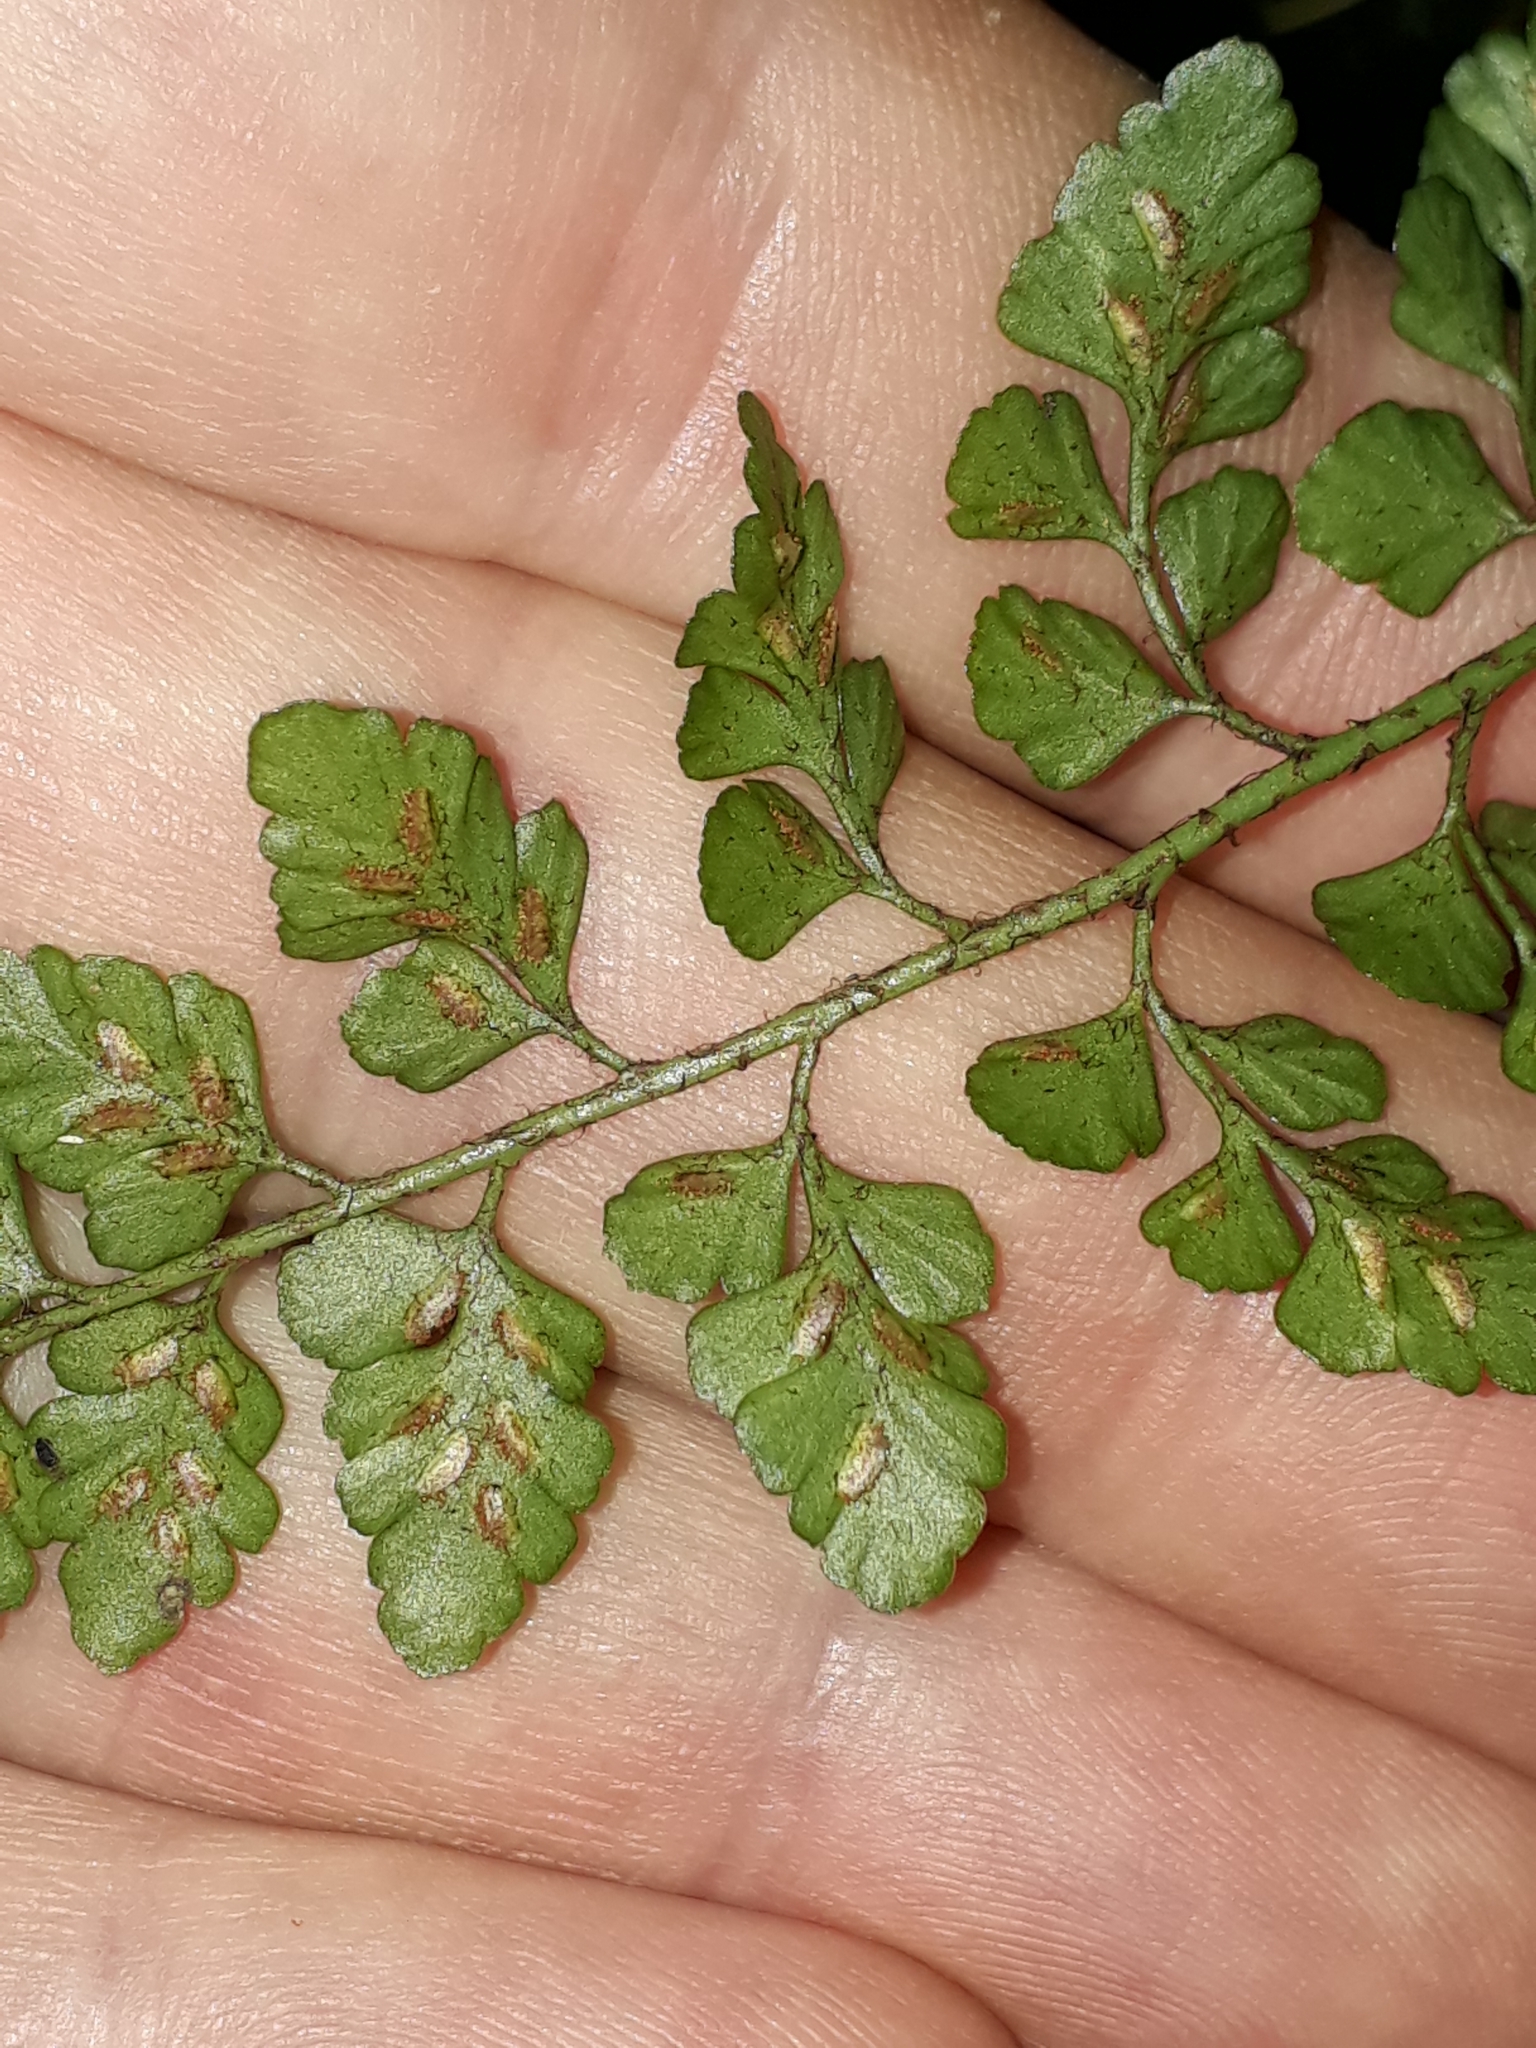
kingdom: Plantae
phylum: Tracheophyta
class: Polypodiopsida
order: Polypodiales
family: Aspleniaceae
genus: Asplenium
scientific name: Asplenium hookerianum
